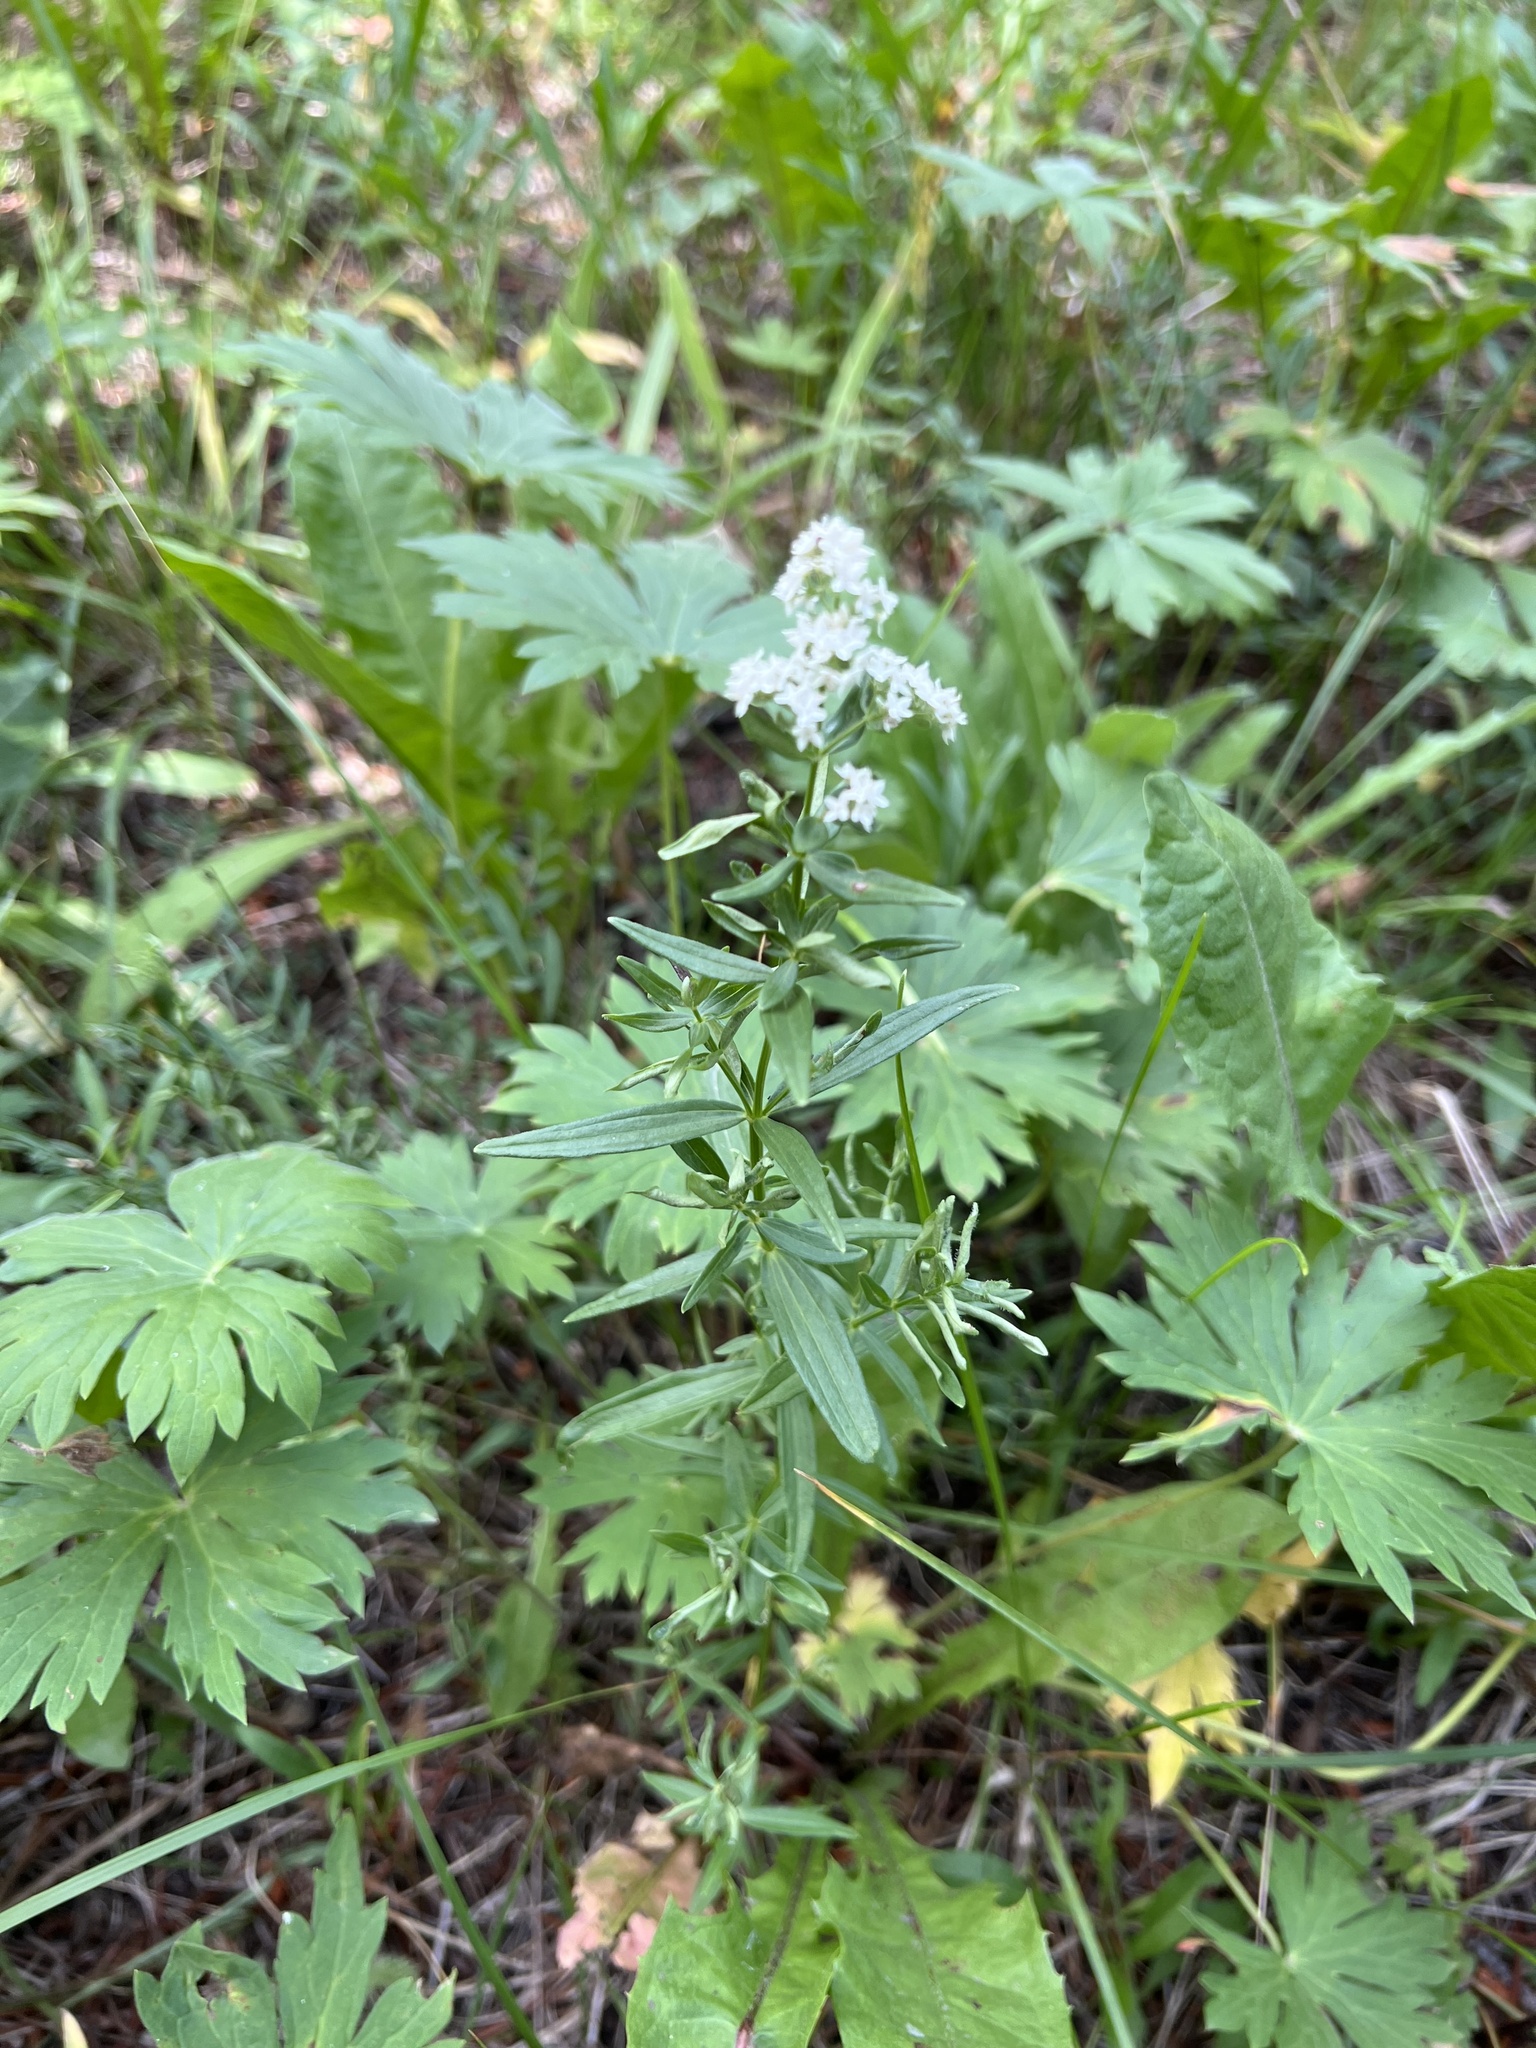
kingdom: Plantae
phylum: Tracheophyta
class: Magnoliopsida
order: Gentianales
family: Rubiaceae
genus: Galium
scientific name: Galium boreale
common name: Northern bedstraw
